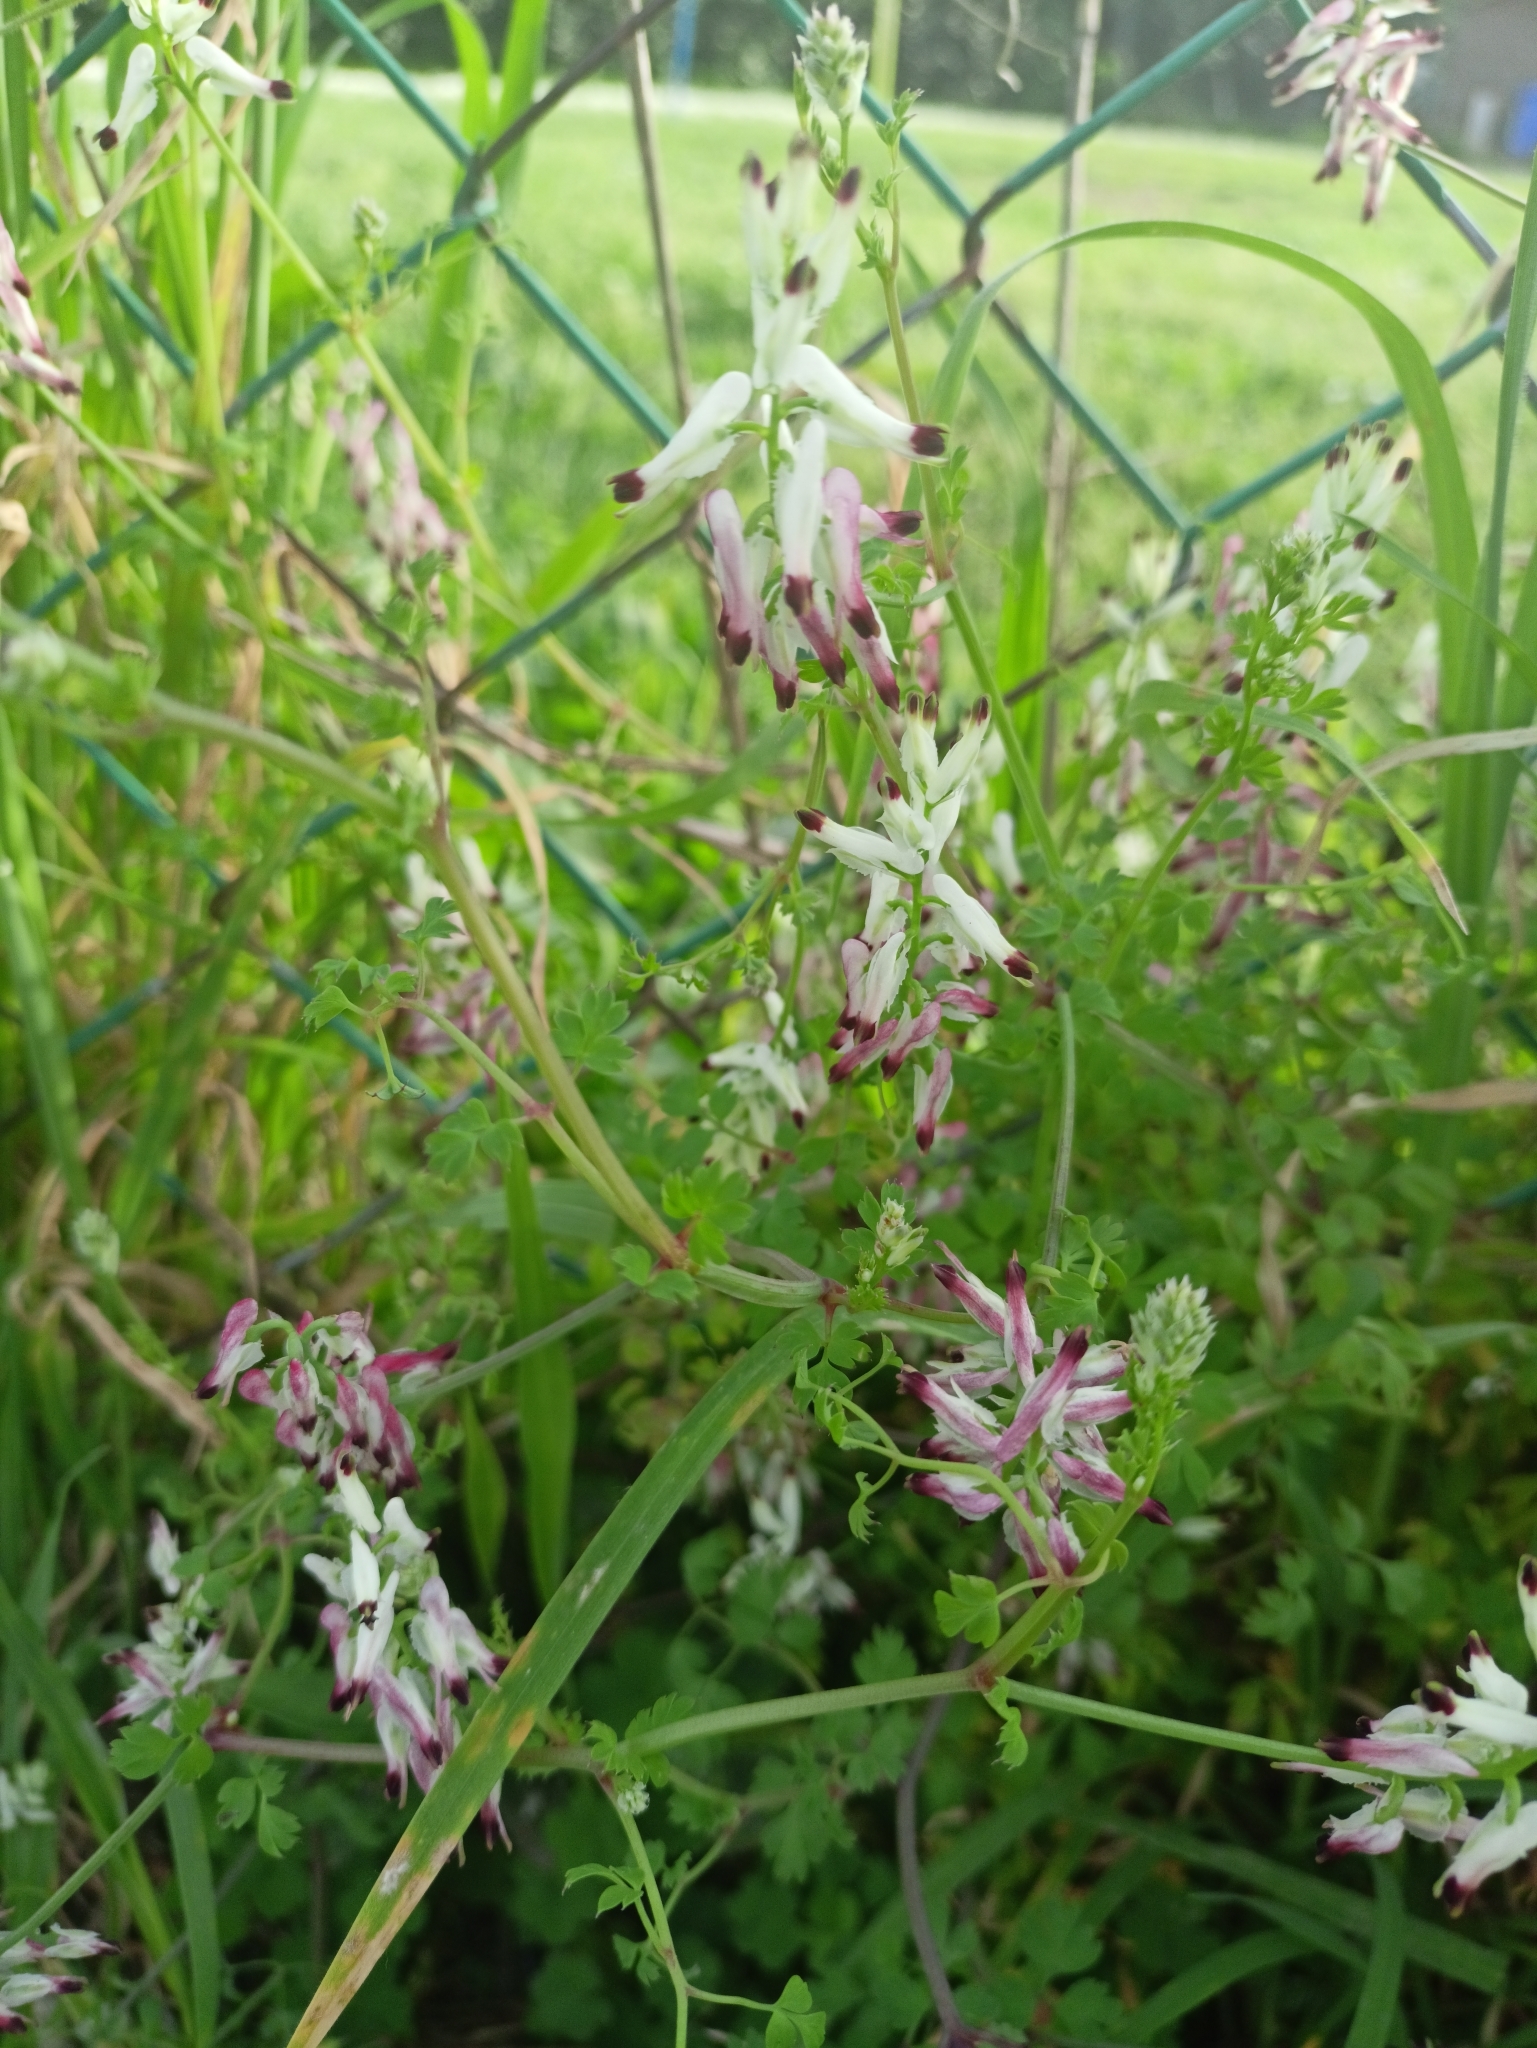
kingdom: Plantae
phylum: Tracheophyta
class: Magnoliopsida
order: Ranunculales
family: Papaveraceae
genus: Fumaria
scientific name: Fumaria capreolata
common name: White ramping-fumitory
